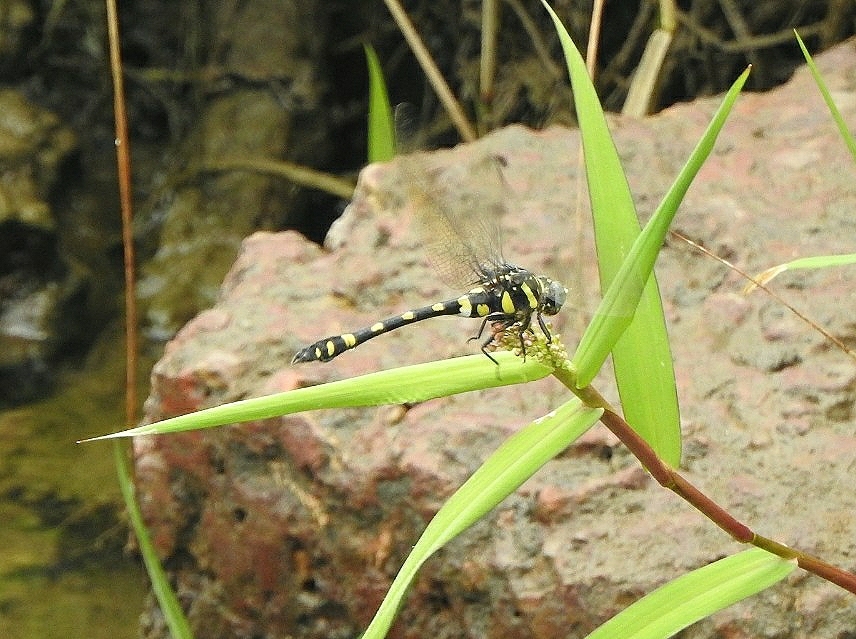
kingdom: Animalia
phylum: Arthropoda
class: Insecta
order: Odonata
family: Gomphidae
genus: Ictinogomphus
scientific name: Ictinogomphus rapax
